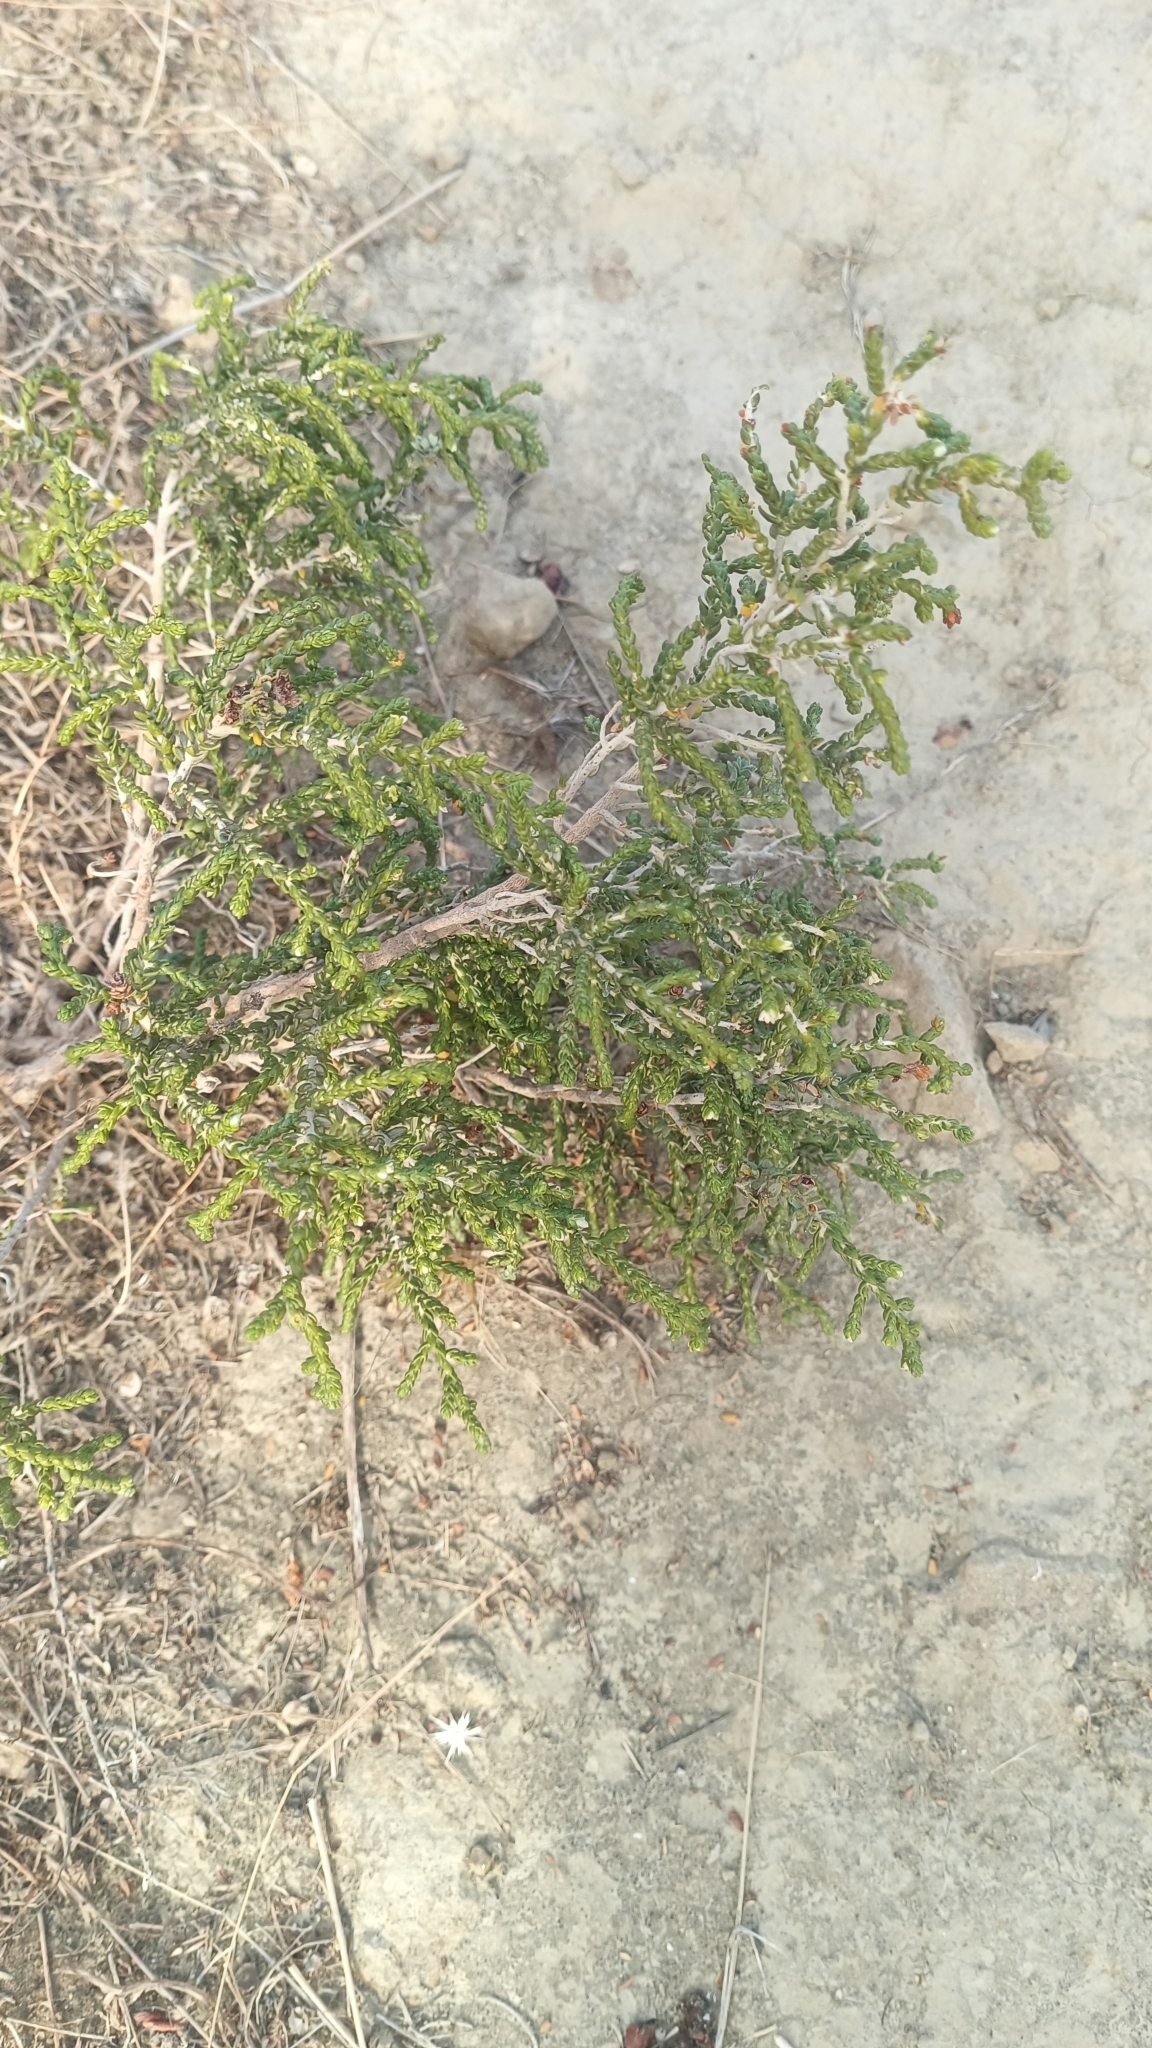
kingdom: Plantae
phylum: Tracheophyta
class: Magnoliopsida
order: Malvales
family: Thymelaeaceae
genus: Thymelaea
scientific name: Thymelaea hirsuta
